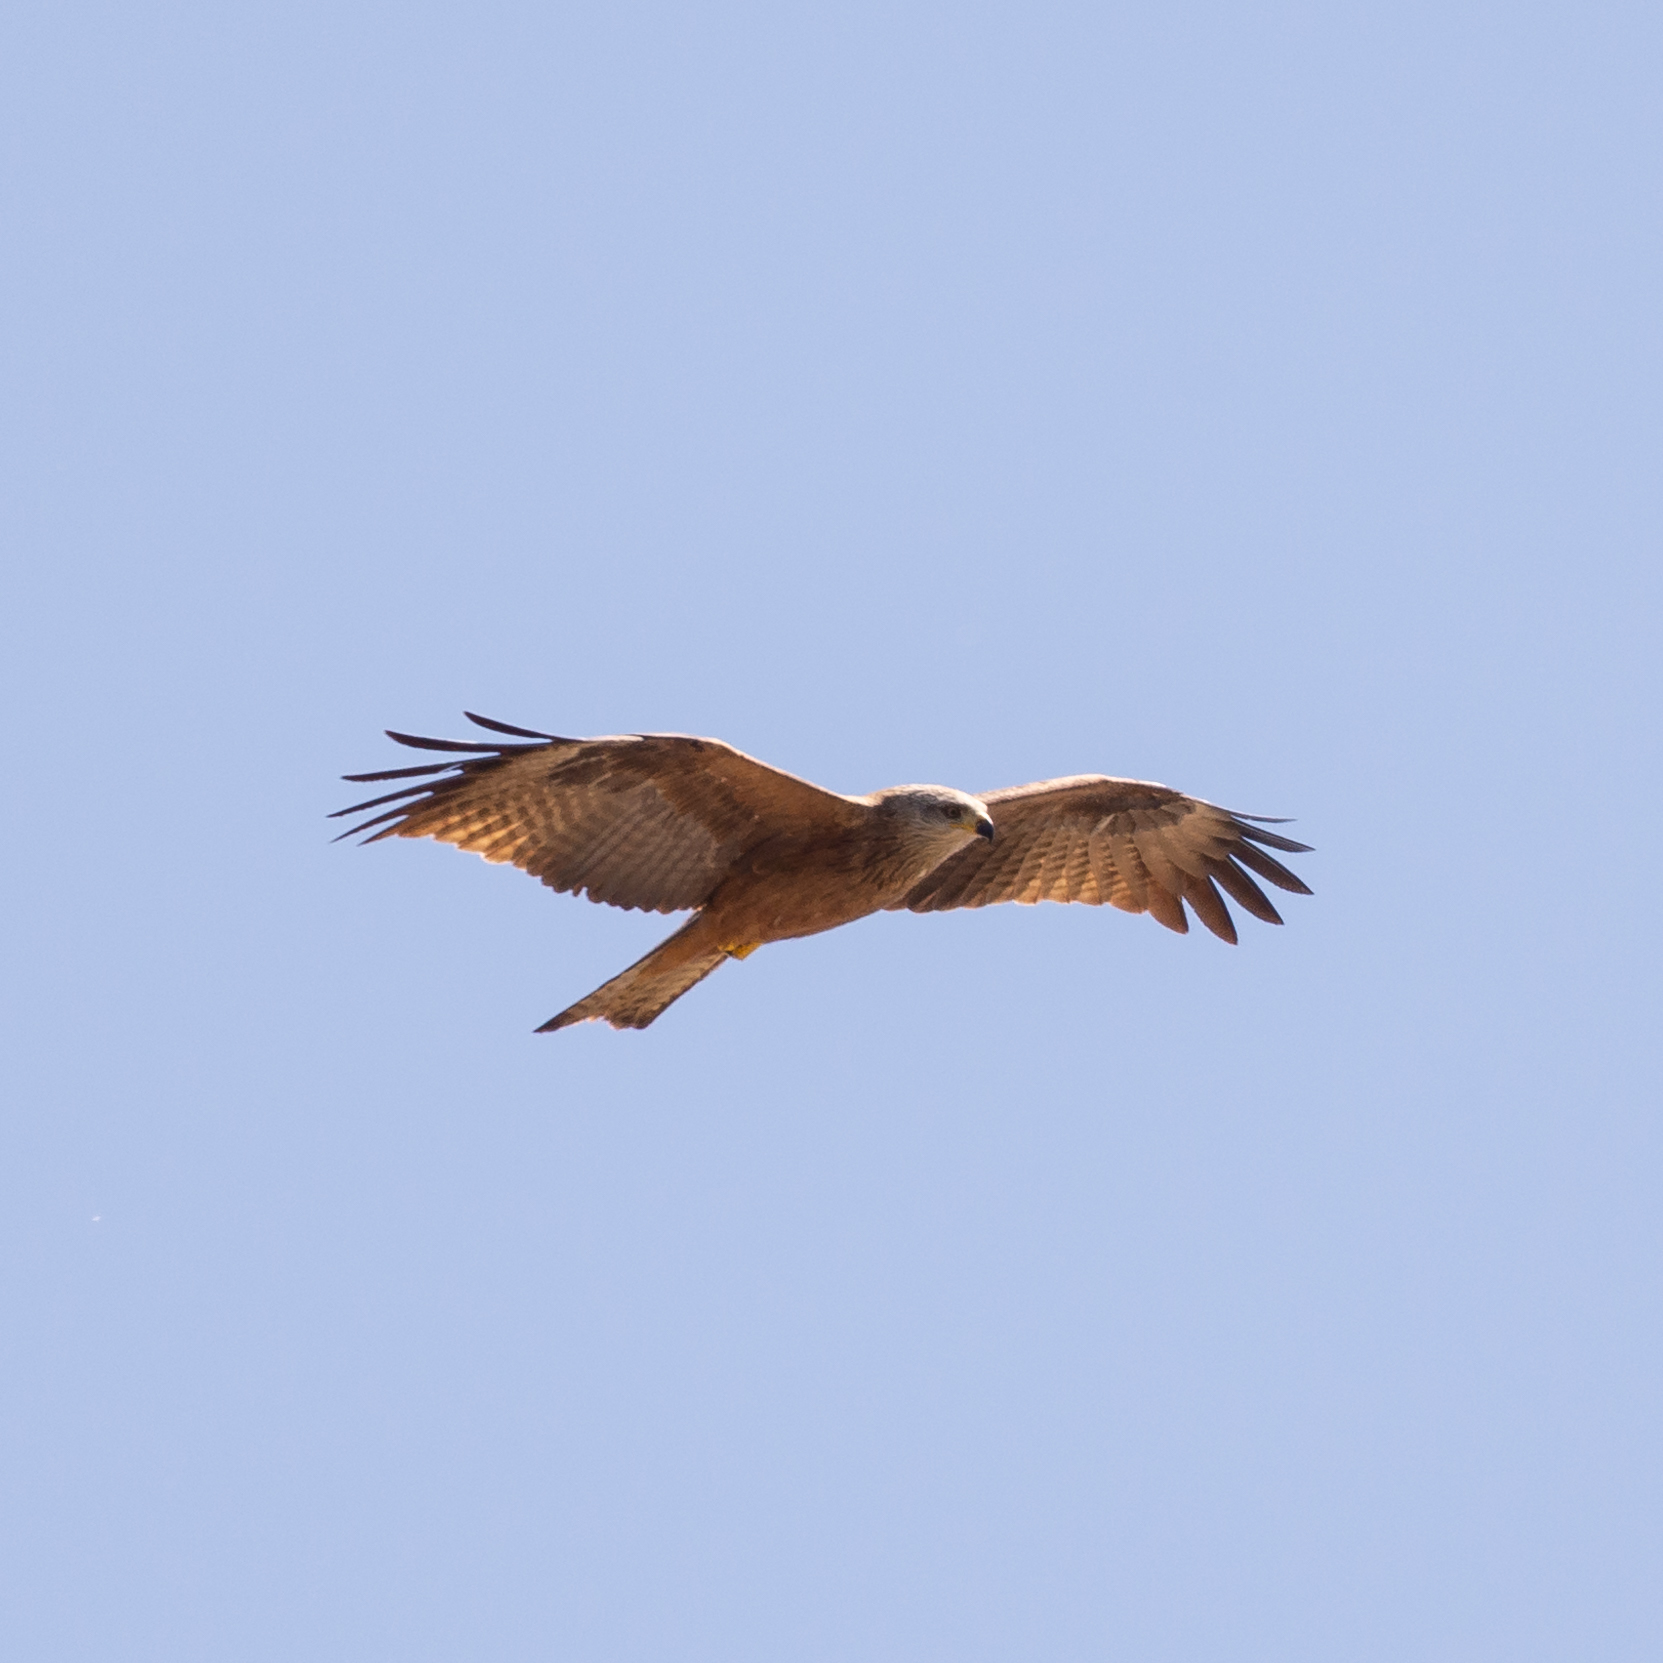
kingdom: Animalia
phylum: Chordata
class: Aves
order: Accipitriformes
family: Accipitridae
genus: Milvus
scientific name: Milvus migrans
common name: Black kite
